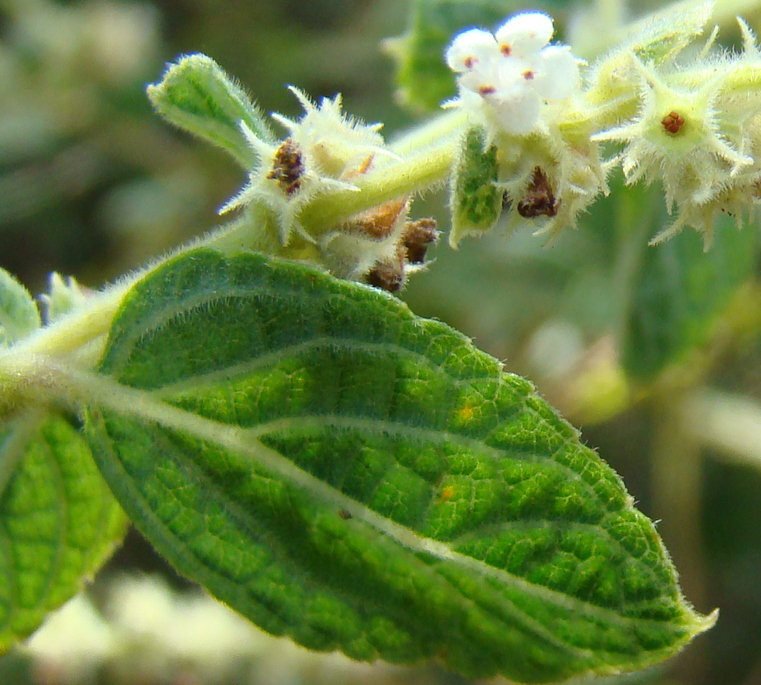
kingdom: Plantae
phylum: Tracheophyta
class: Magnoliopsida
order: Lamiales
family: Lamiaceae
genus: Asterohyptis
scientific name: Asterohyptis stellulata
